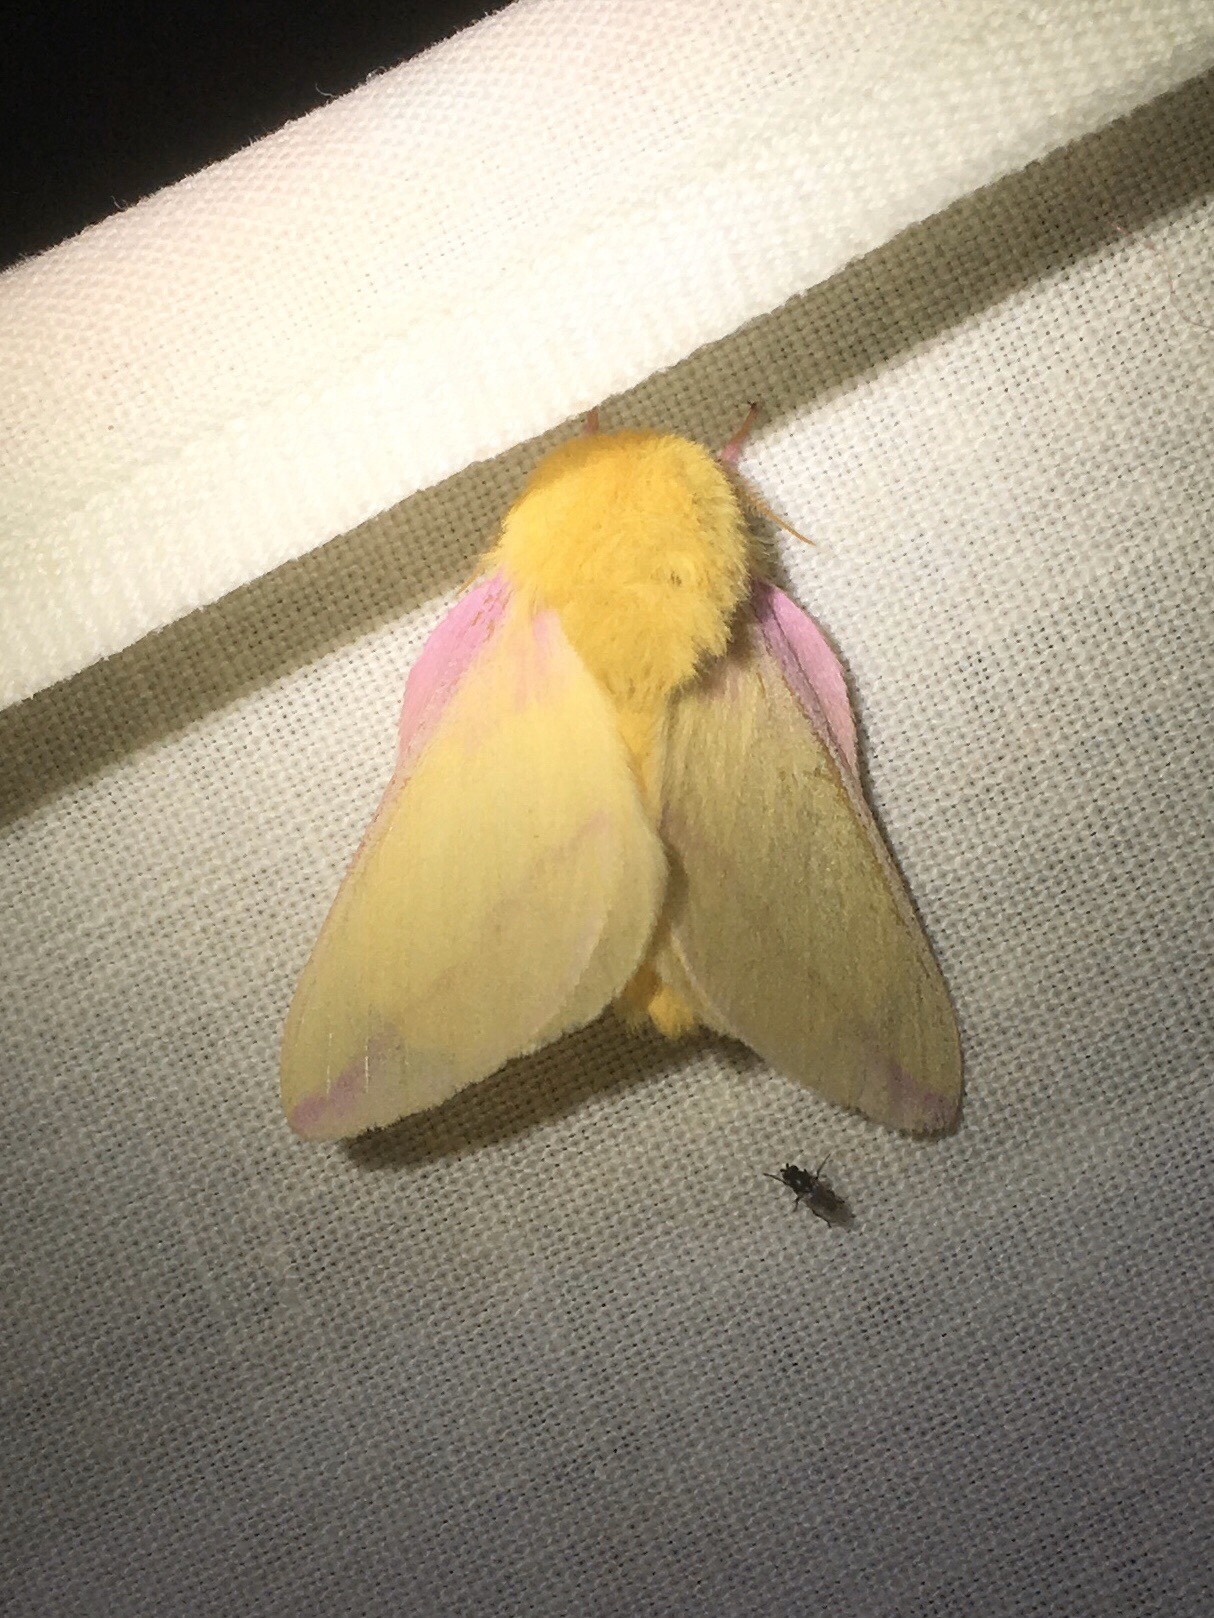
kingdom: Animalia
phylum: Arthropoda
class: Insecta
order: Lepidoptera
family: Saturniidae
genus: Dryocampa
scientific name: Dryocampa rubicunda
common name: Rosy maple moth
